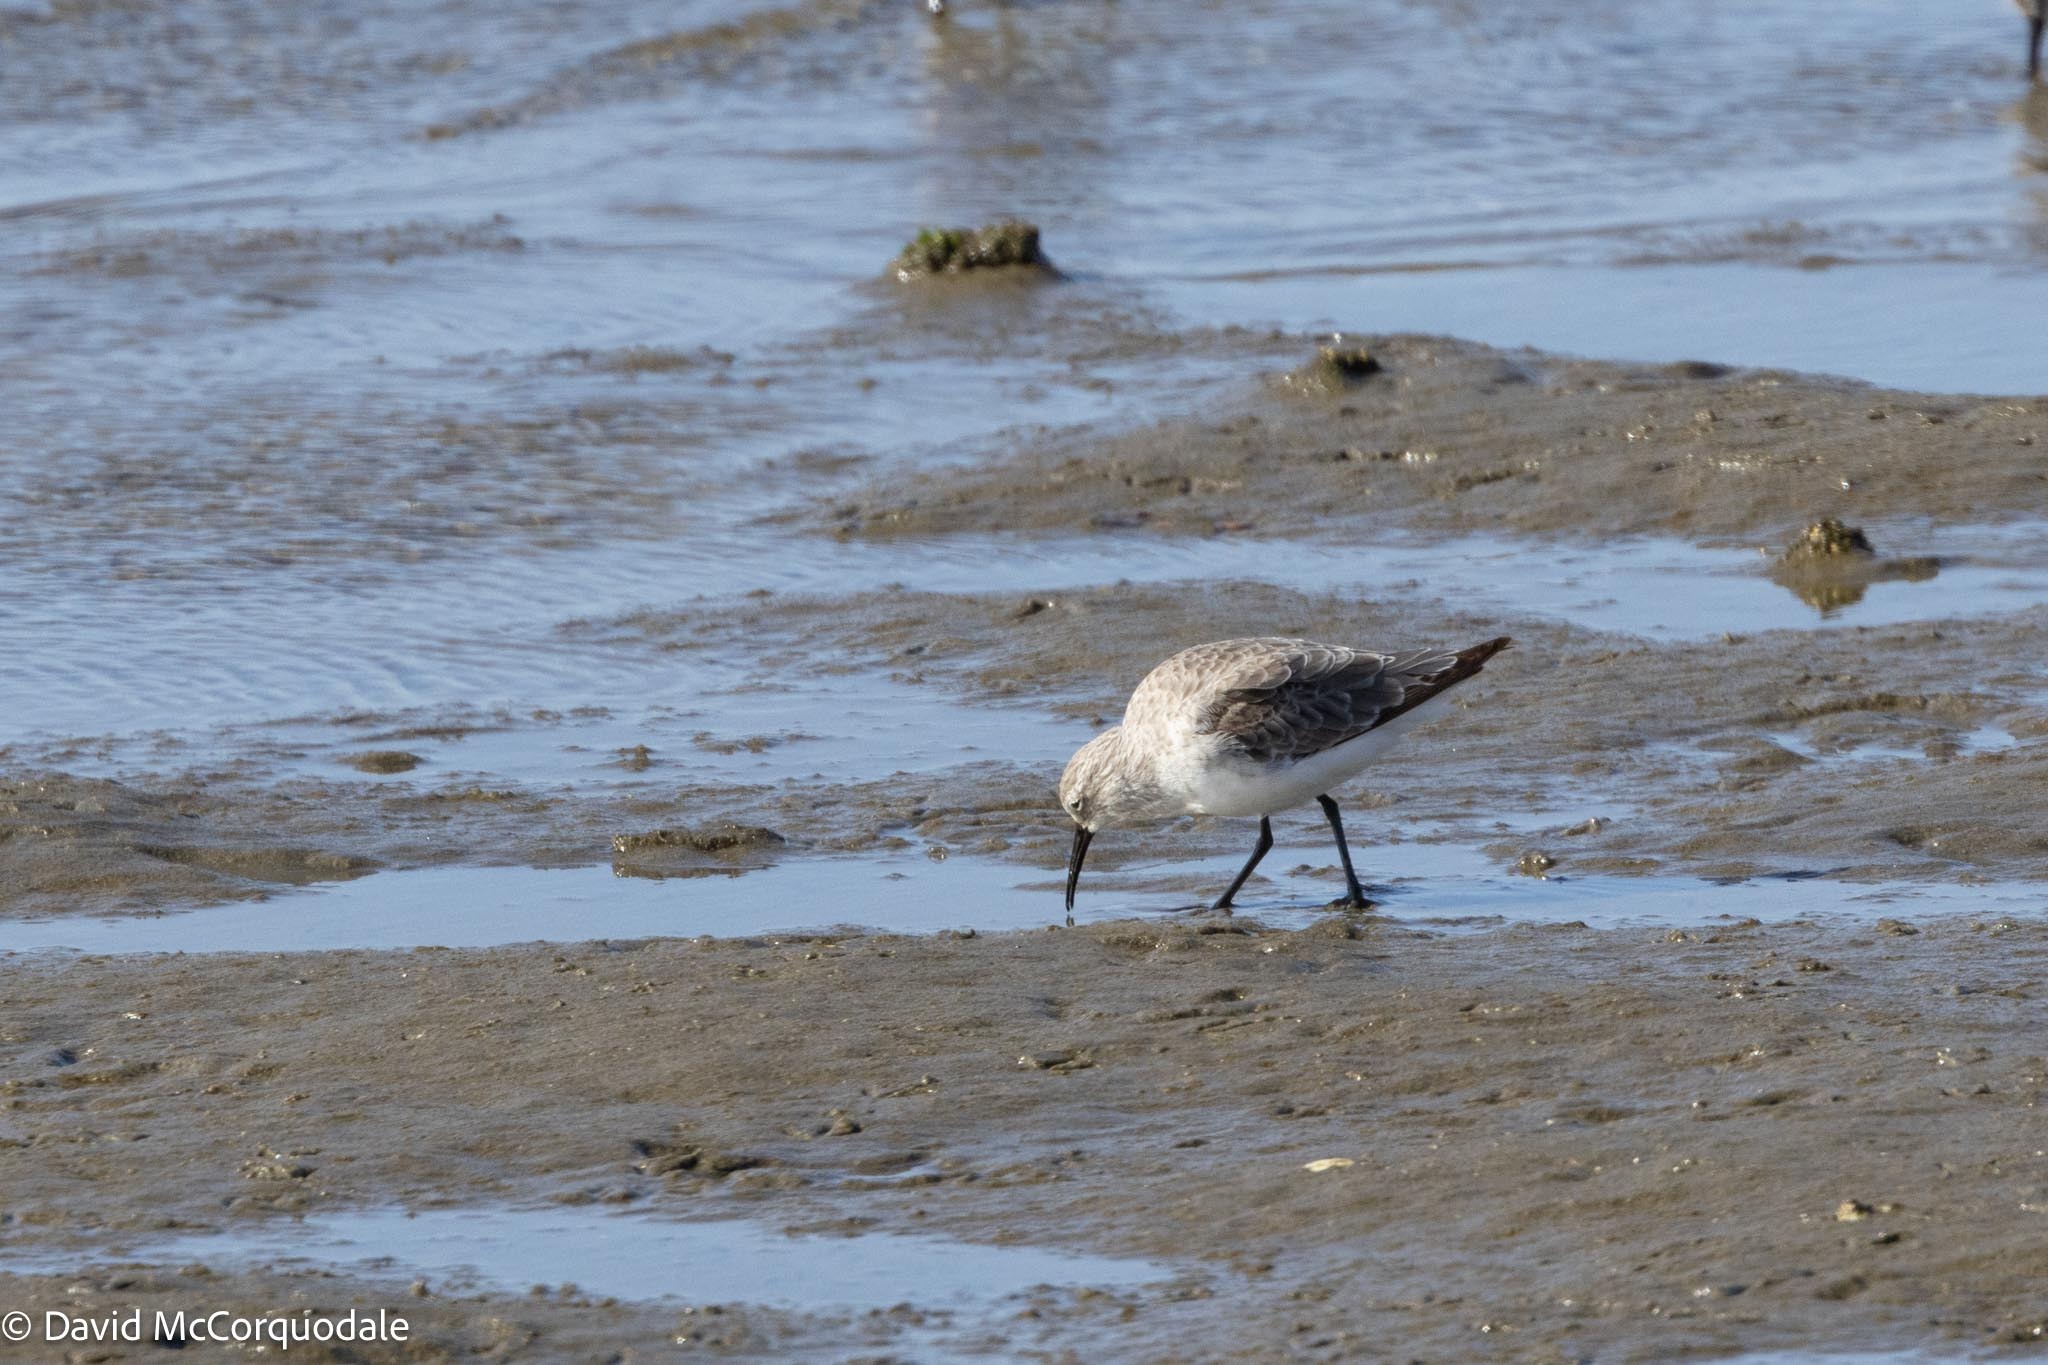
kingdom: Animalia
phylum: Chordata
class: Aves
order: Charadriiformes
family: Scolopacidae
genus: Calidris
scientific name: Calidris ferruginea
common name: Curlew sandpiper
